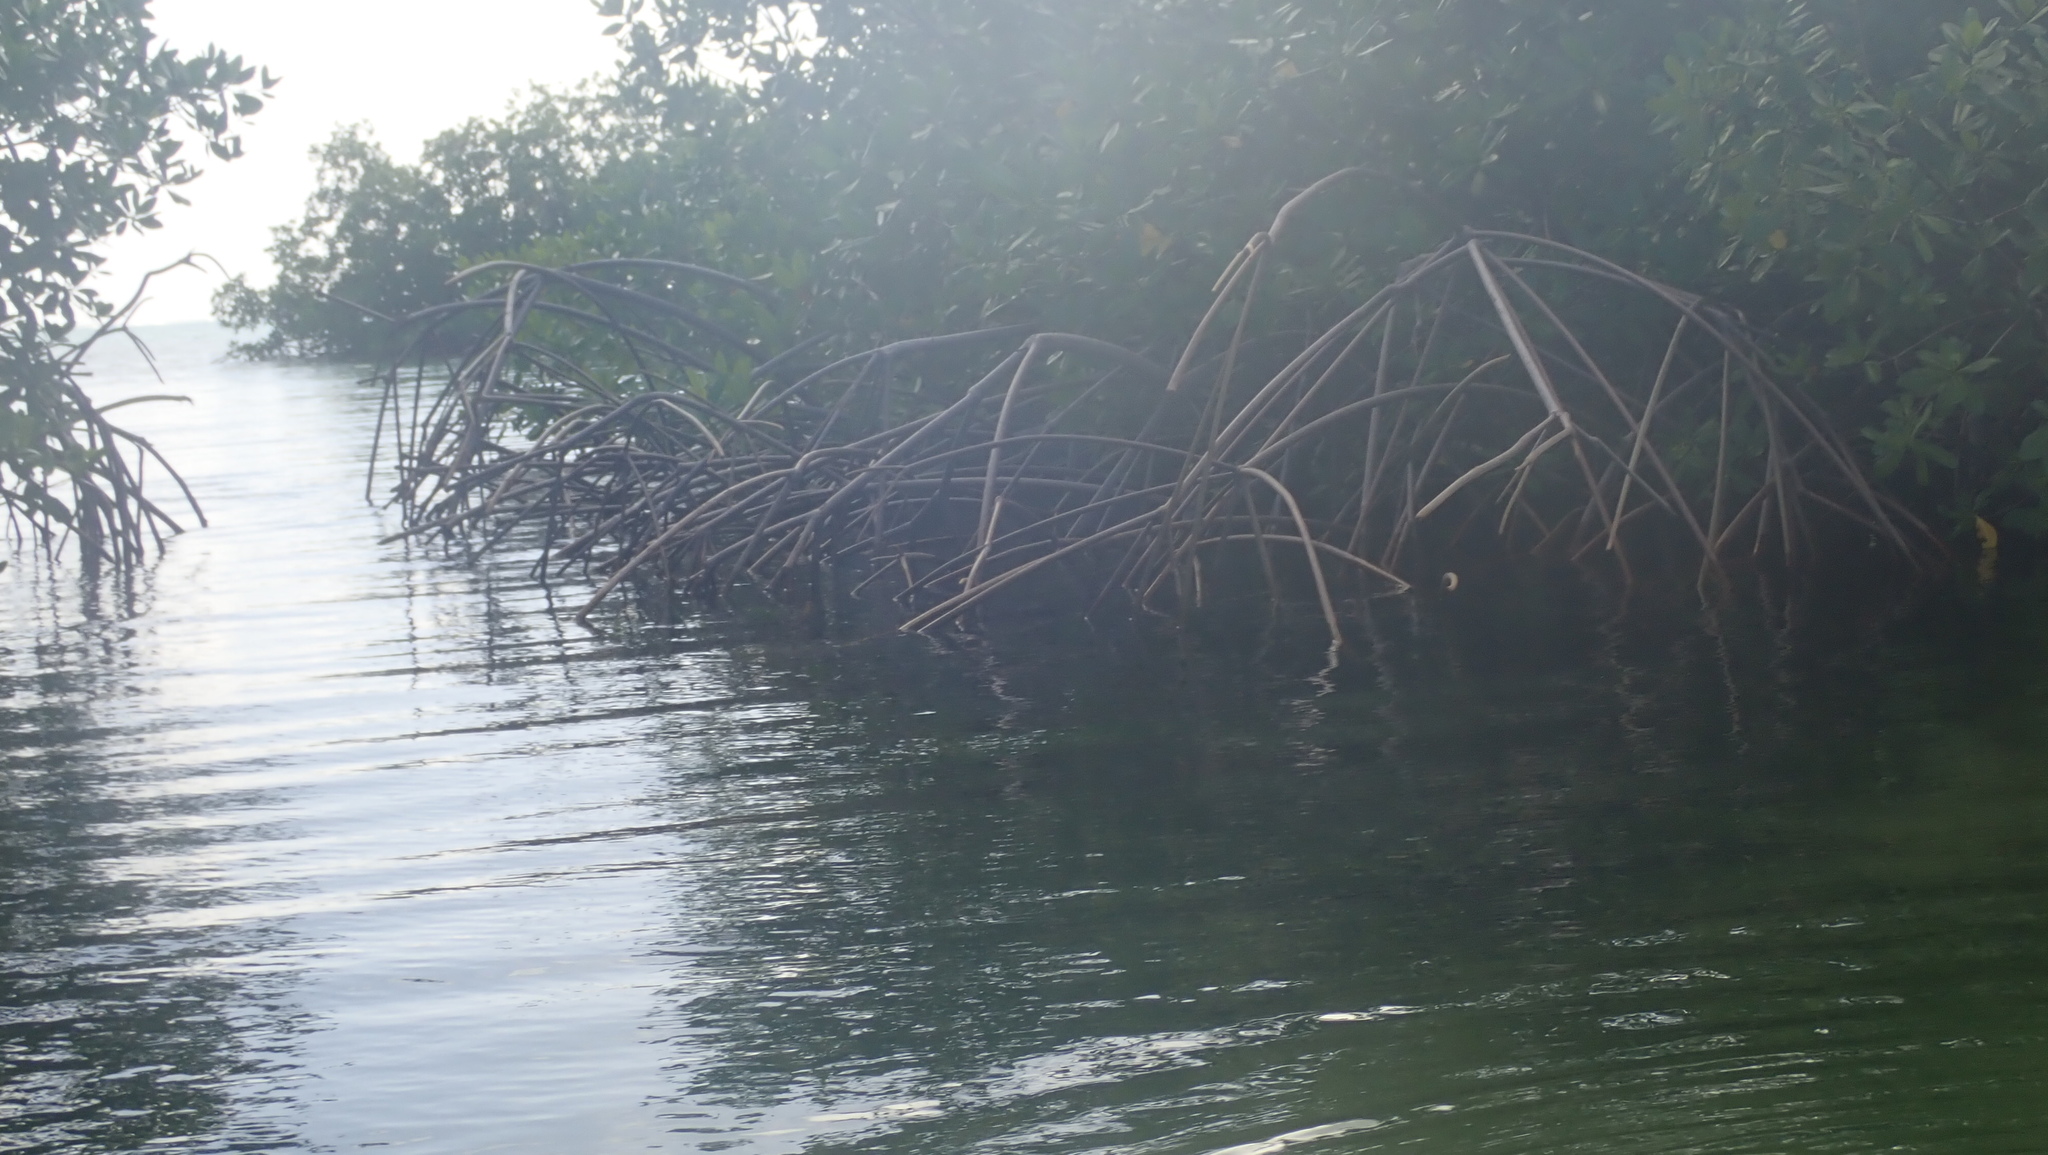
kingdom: Plantae
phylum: Tracheophyta
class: Magnoliopsida
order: Malpighiales
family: Rhizophoraceae
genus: Rhizophora
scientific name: Rhizophora mangle
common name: Red mangrove
